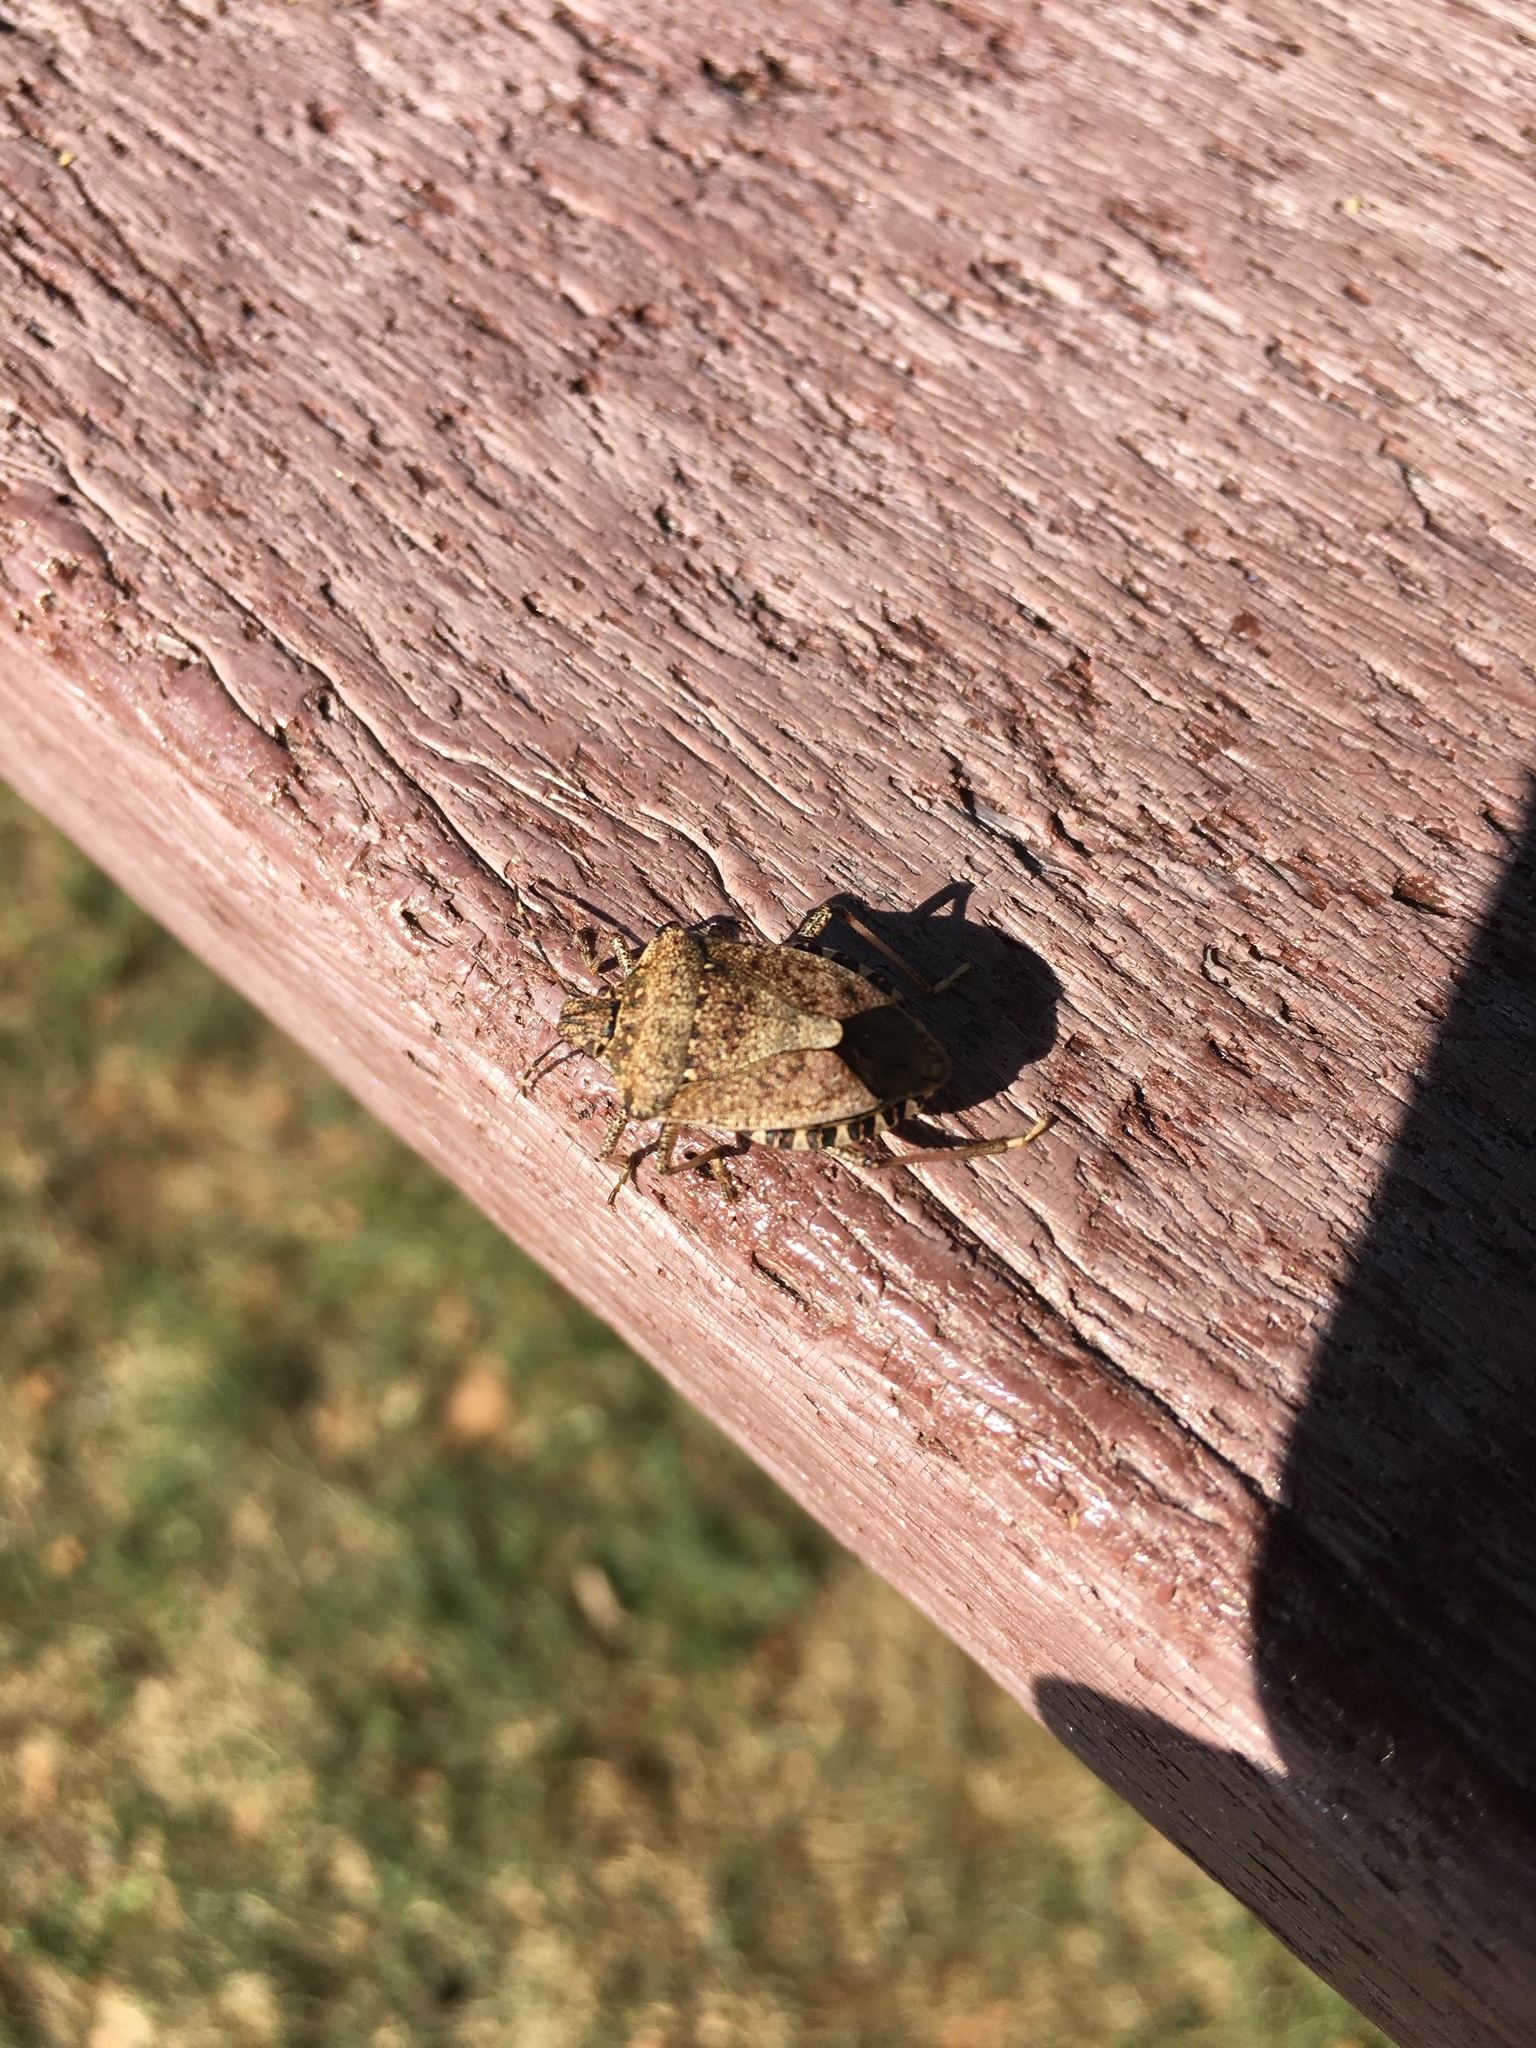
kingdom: Animalia
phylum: Arthropoda
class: Insecta
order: Hemiptera
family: Pentatomidae
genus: Halyomorpha
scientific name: Halyomorpha halys
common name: Brown marmorated stink bug
